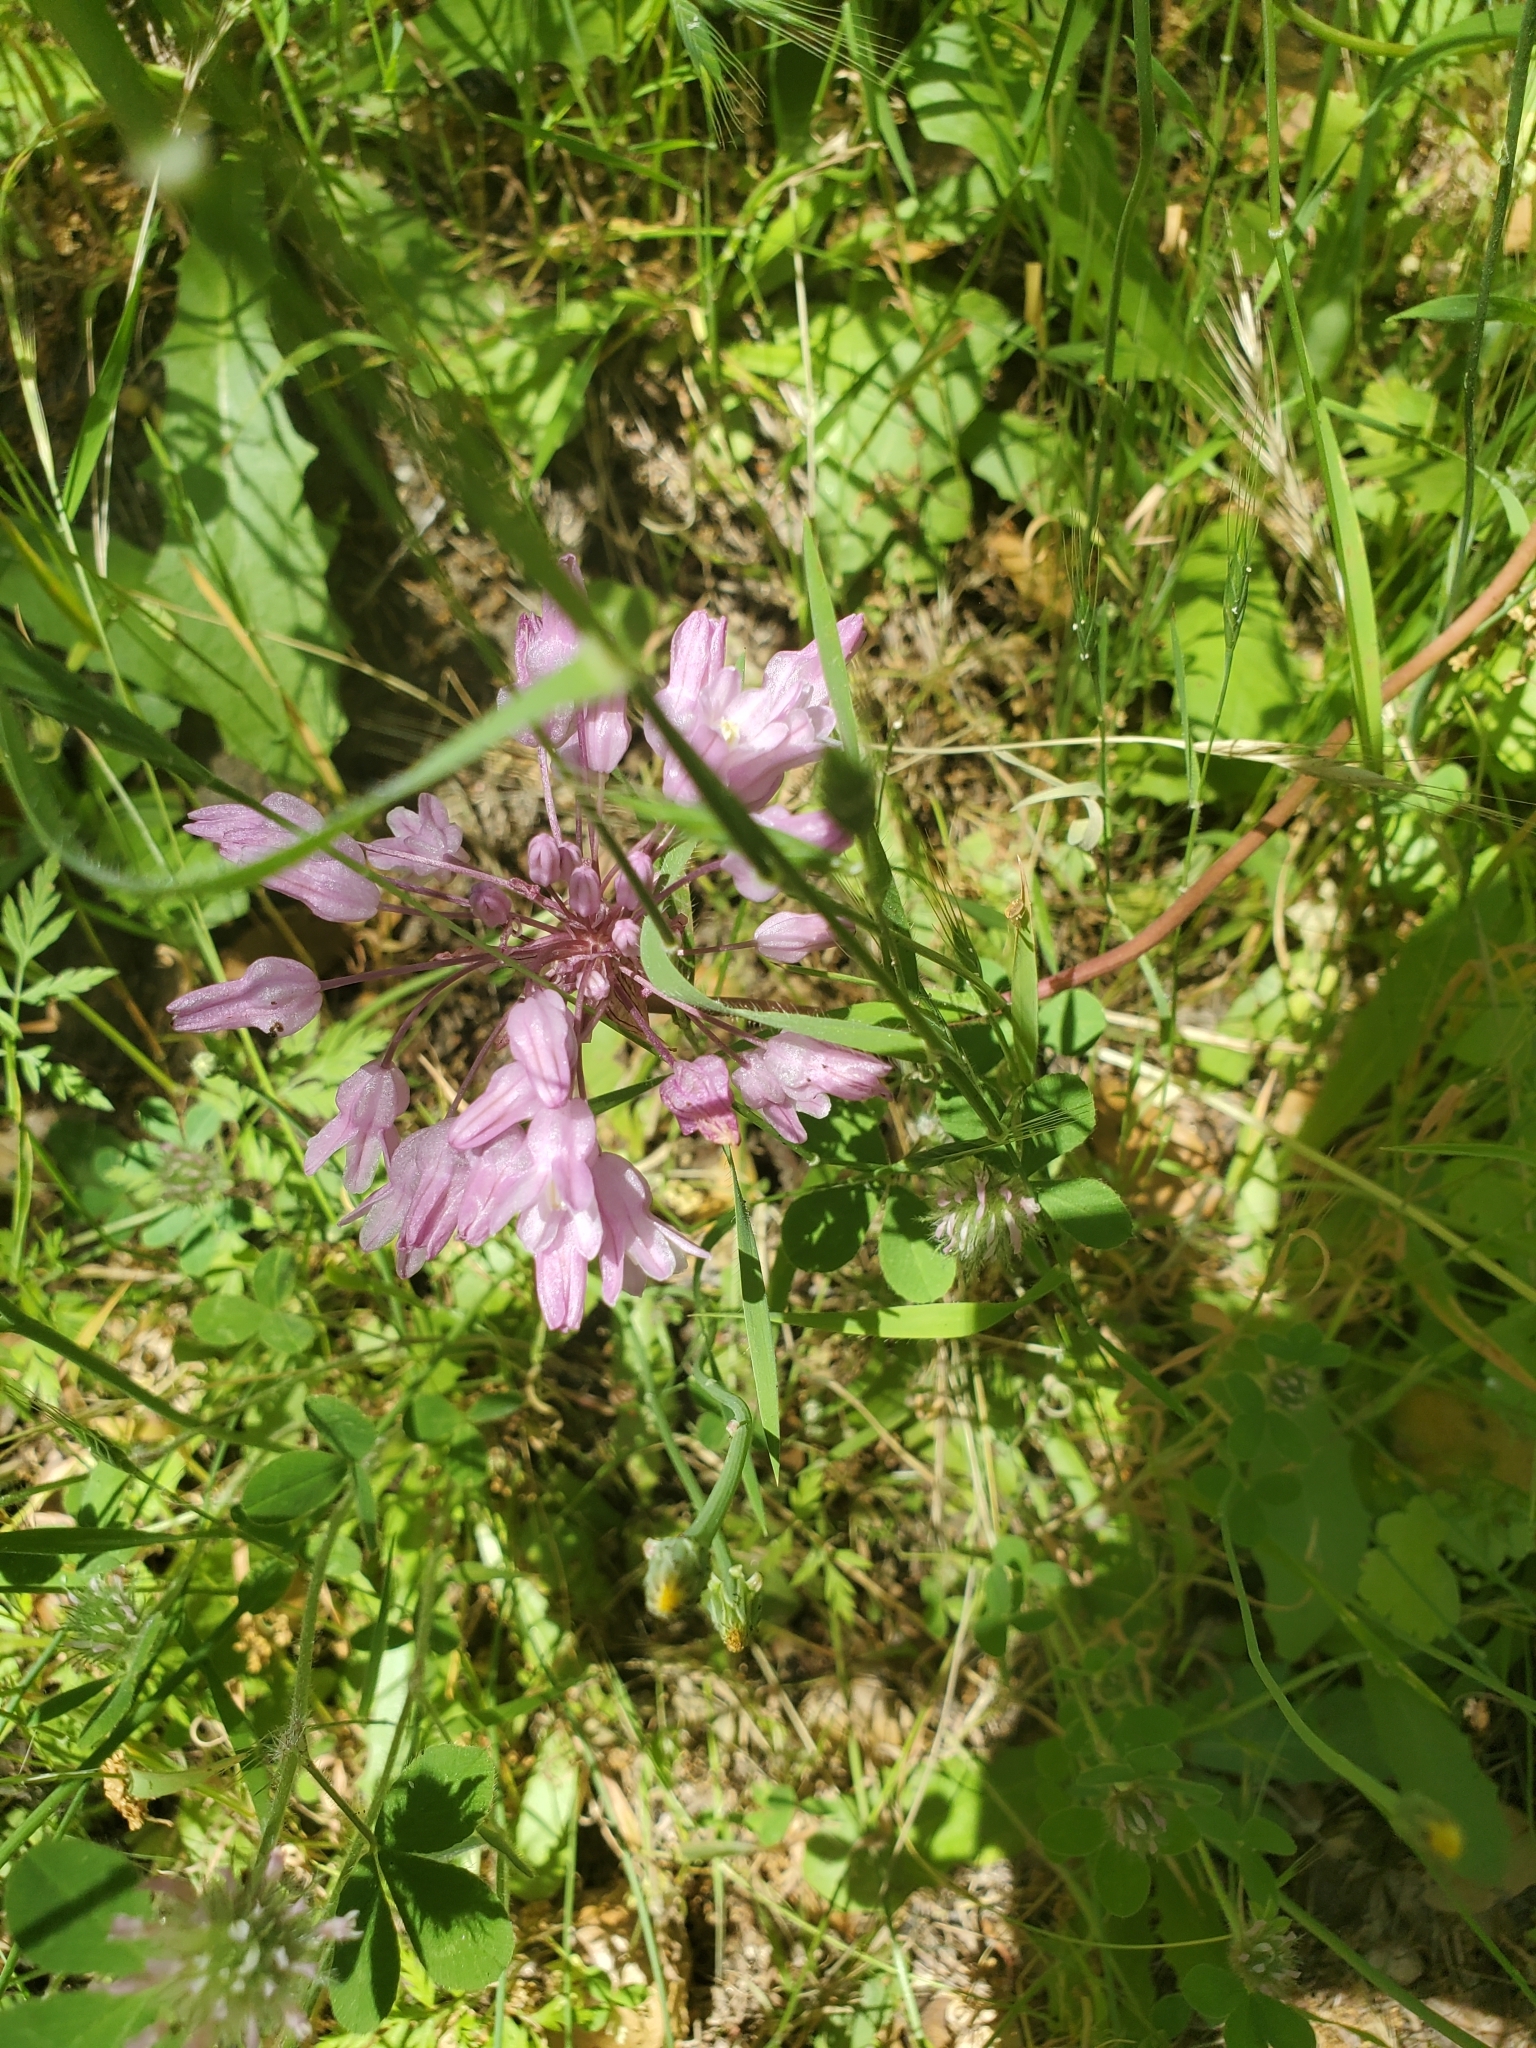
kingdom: Plantae
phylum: Tracheophyta
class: Liliopsida
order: Asparagales
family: Asparagaceae
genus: Dichelostemma
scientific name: Dichelostemma volubile
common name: Trining brodiaea
